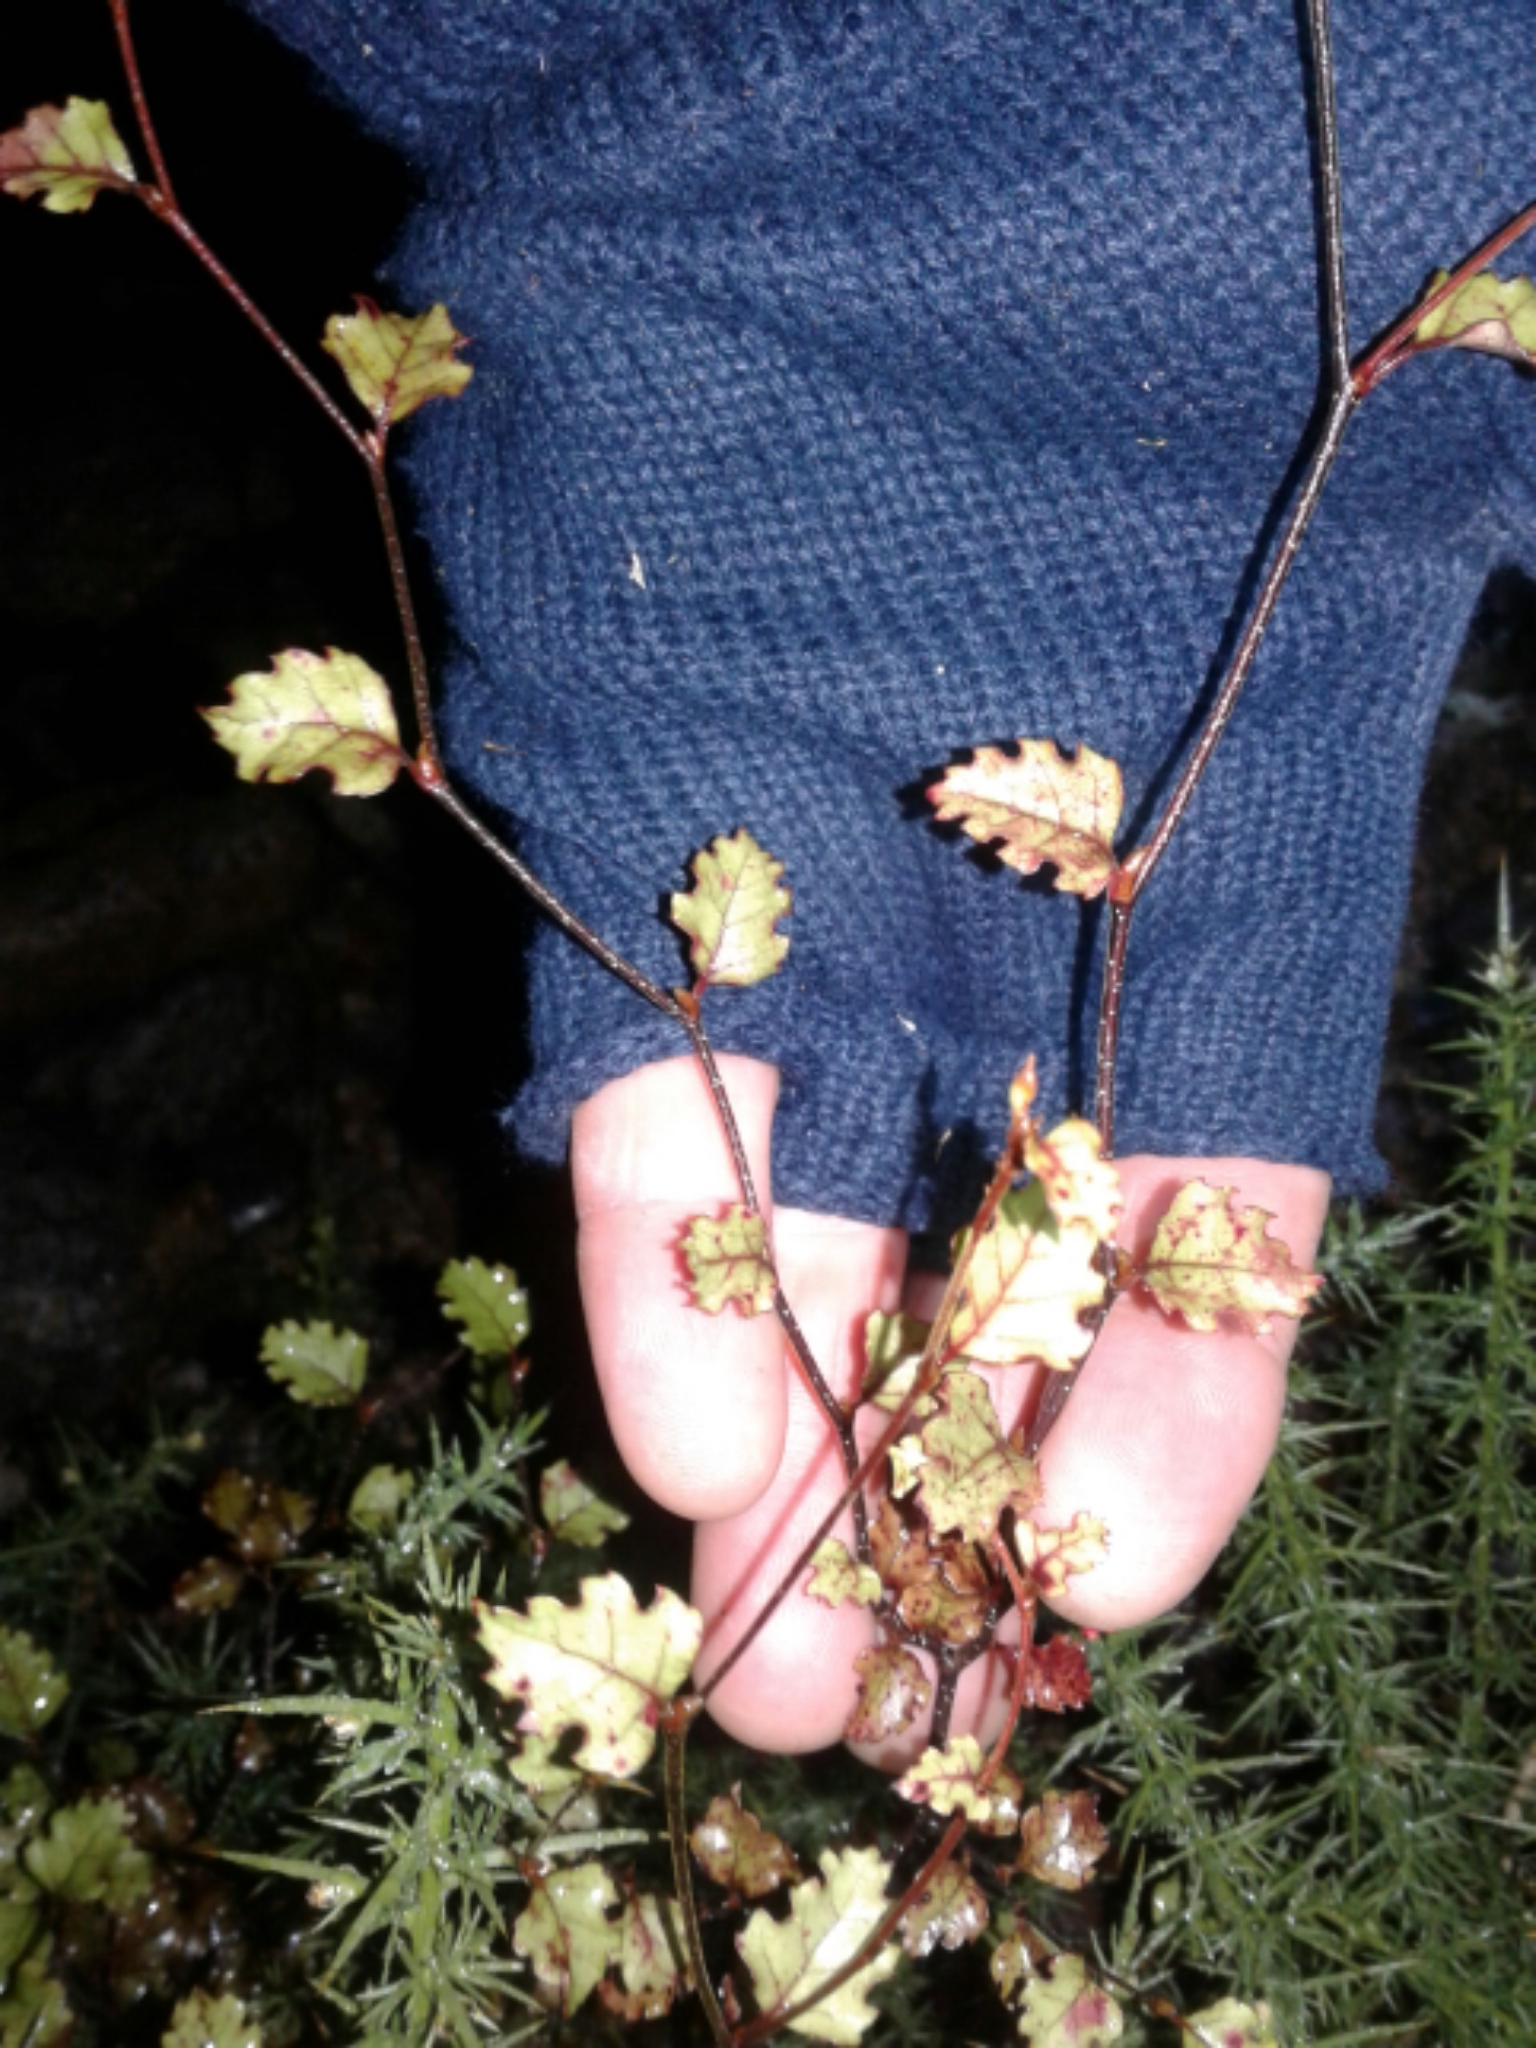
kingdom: Plantae
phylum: Tracheophyta
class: Magnoliopsida
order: Fagales
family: Nothofagaceae
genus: Nothofagus
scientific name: Nothofagus fusca
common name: Red beech
